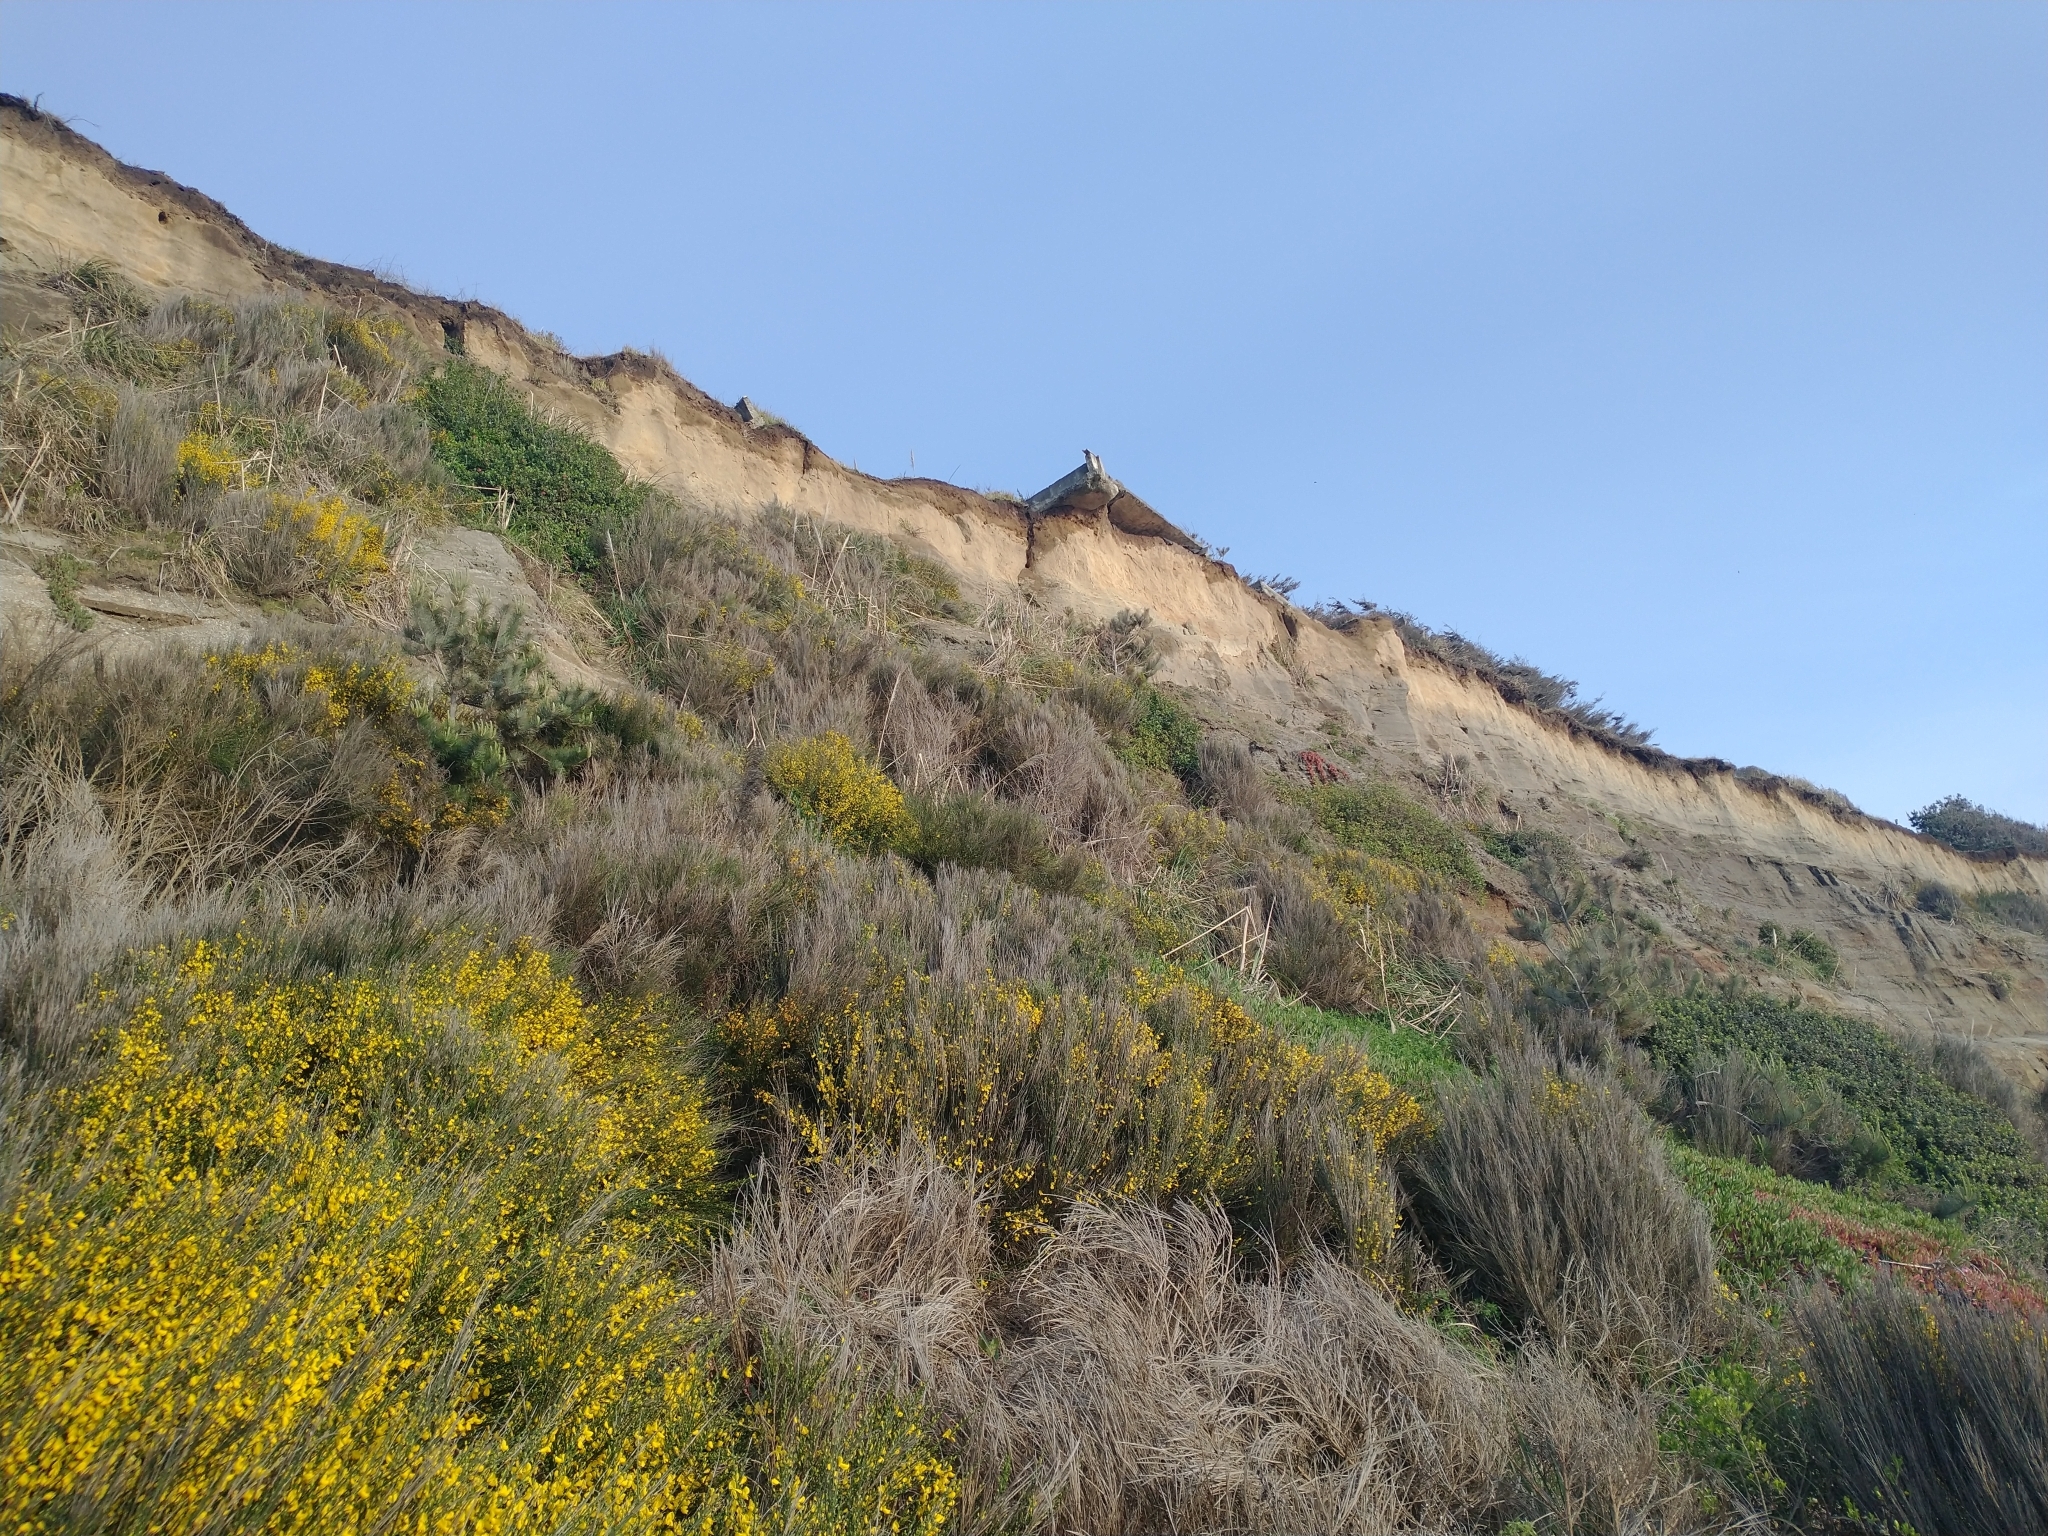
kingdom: Plantae
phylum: Tracheophyta
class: Magnoliopsida
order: Fabales
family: Fabaceae
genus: Cytisus
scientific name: Cytisus scoparius
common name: Scotch broom
